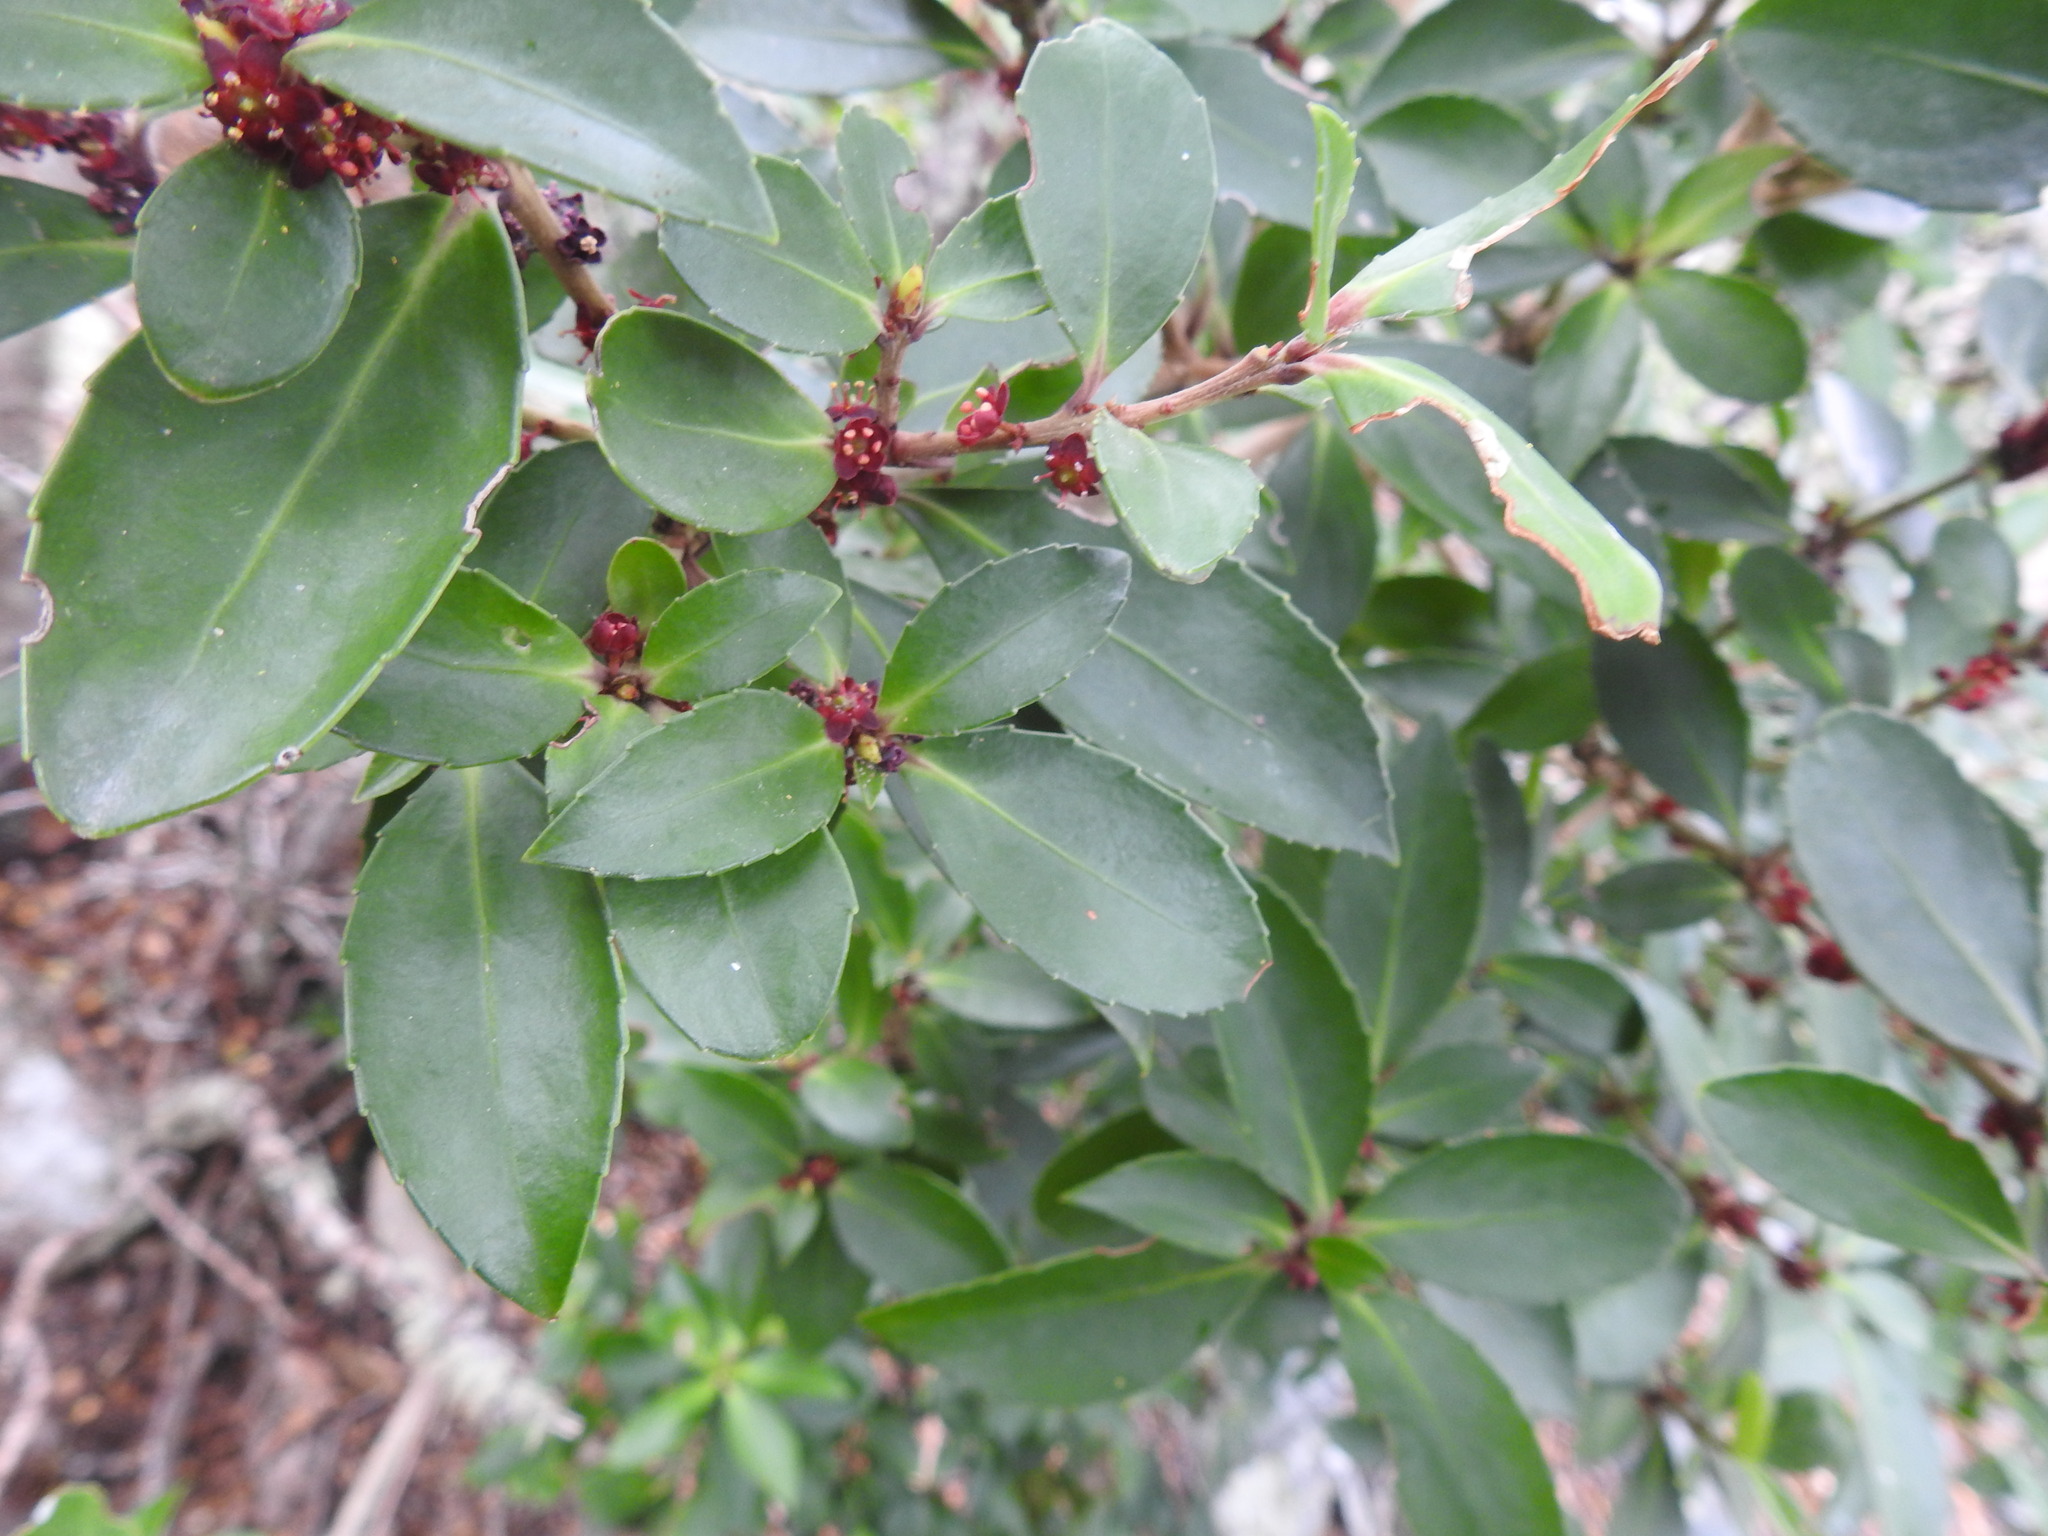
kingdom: Plantae
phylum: Tracheophyta
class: Magnoliopsida
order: Celastrales
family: Celastraceae
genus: Maytenus
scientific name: Maytenus magellanica
